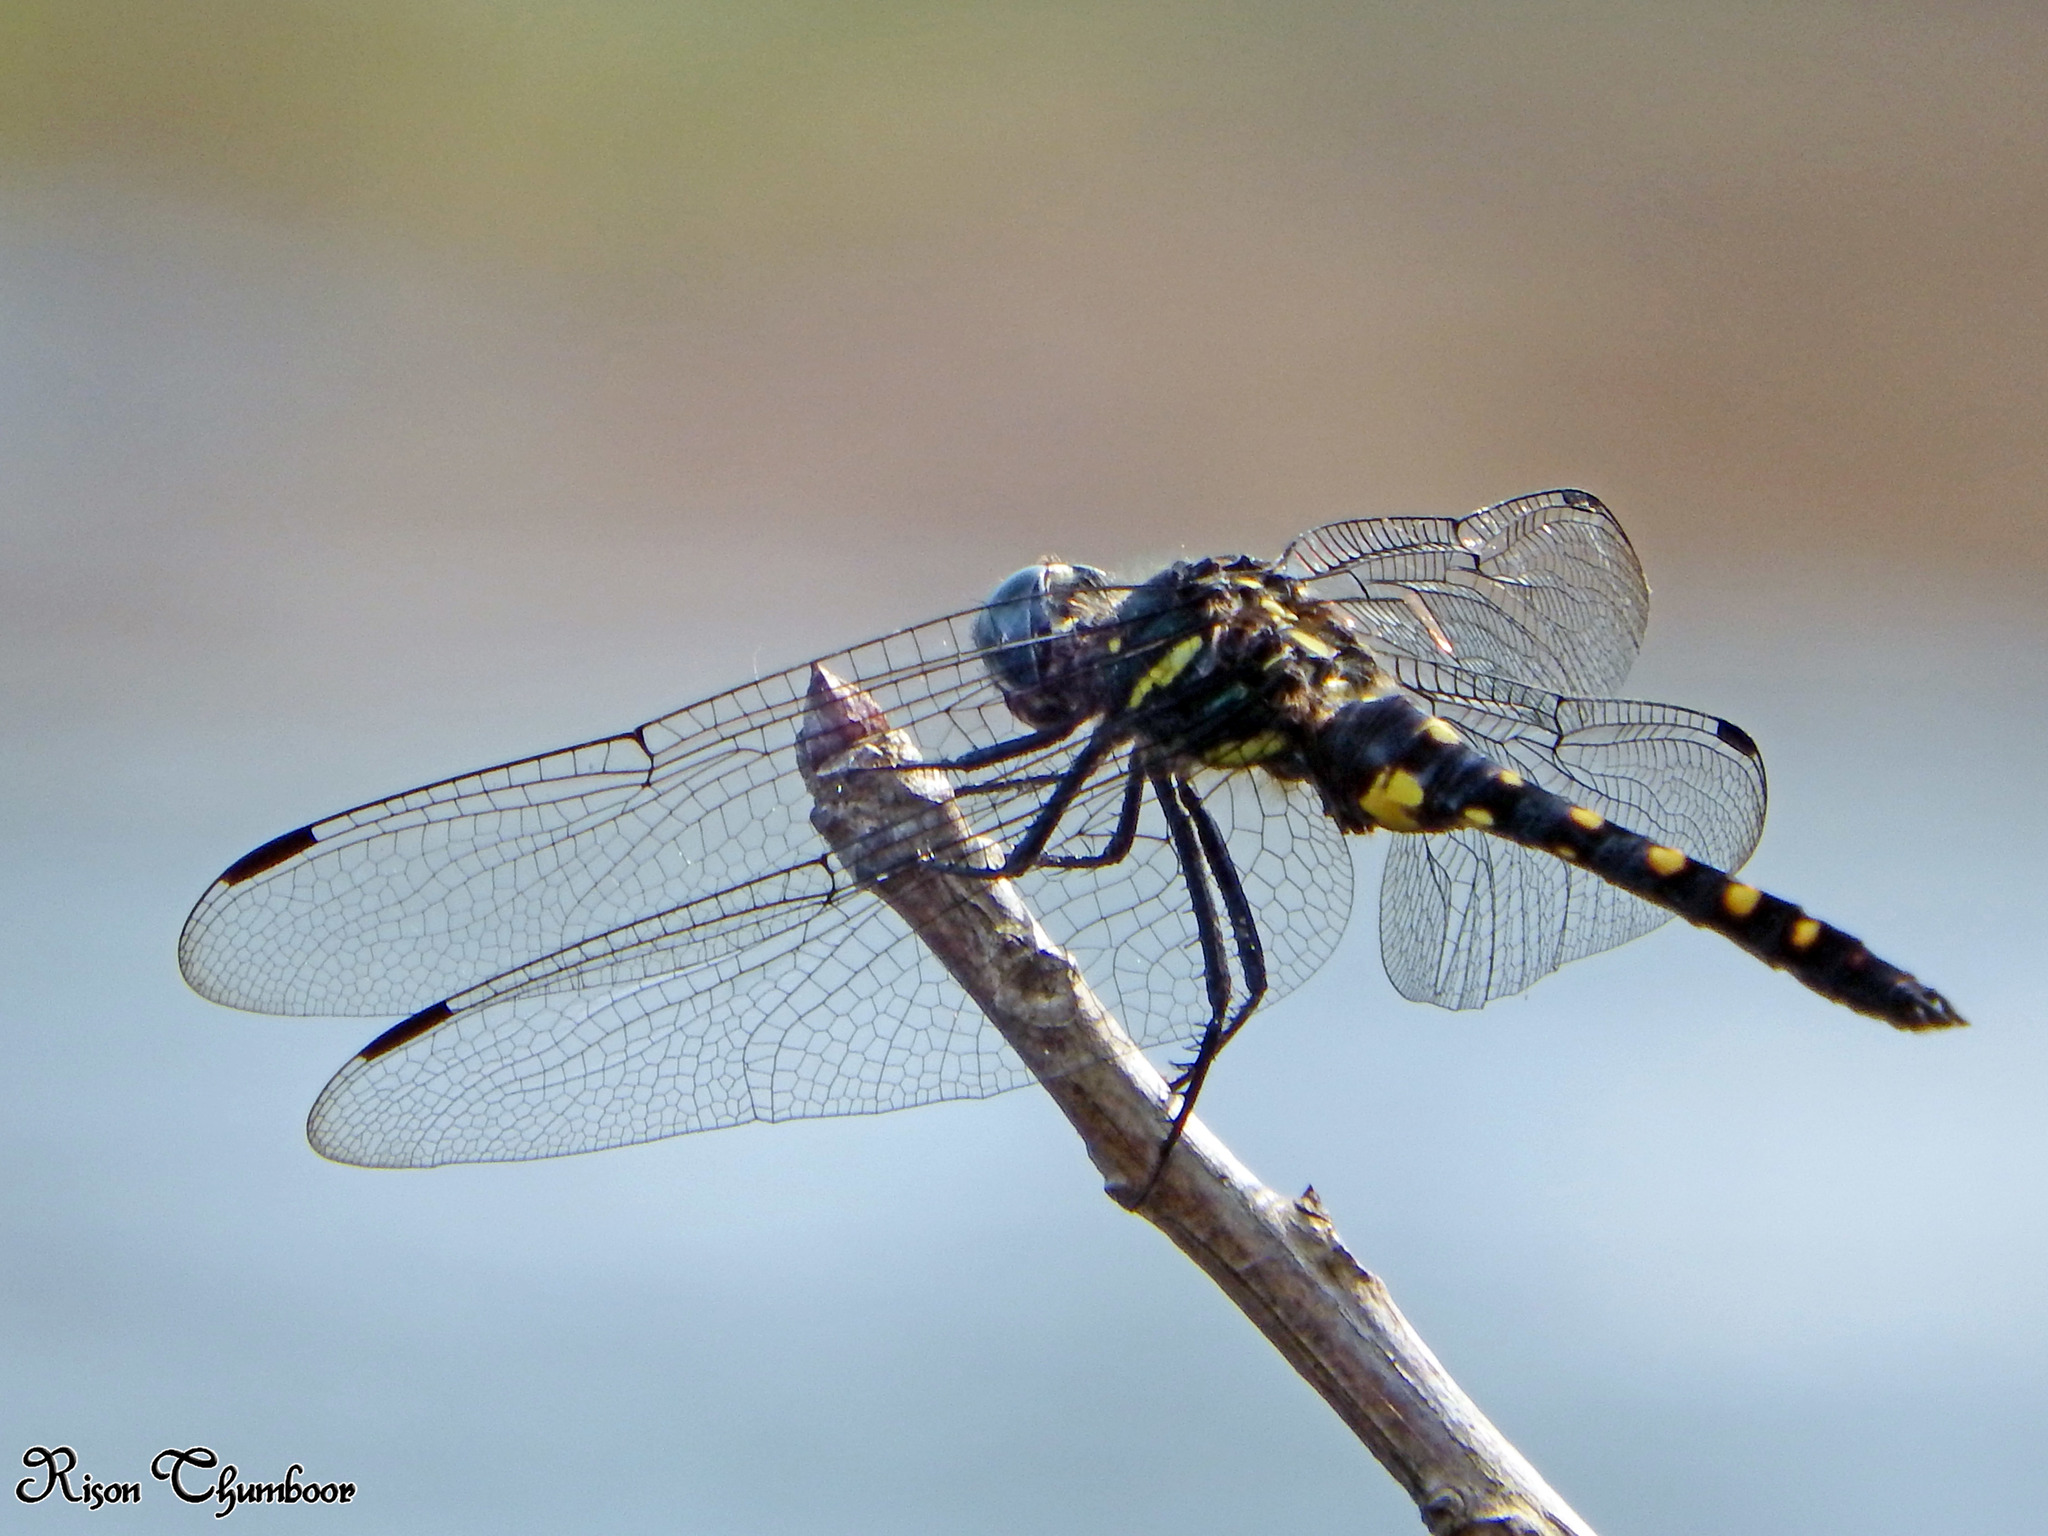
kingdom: Animalia
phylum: Arthropoda
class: Insecta
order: Odonata
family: Libellulidae
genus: Onychothemis
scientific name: Onychothemis testacea
